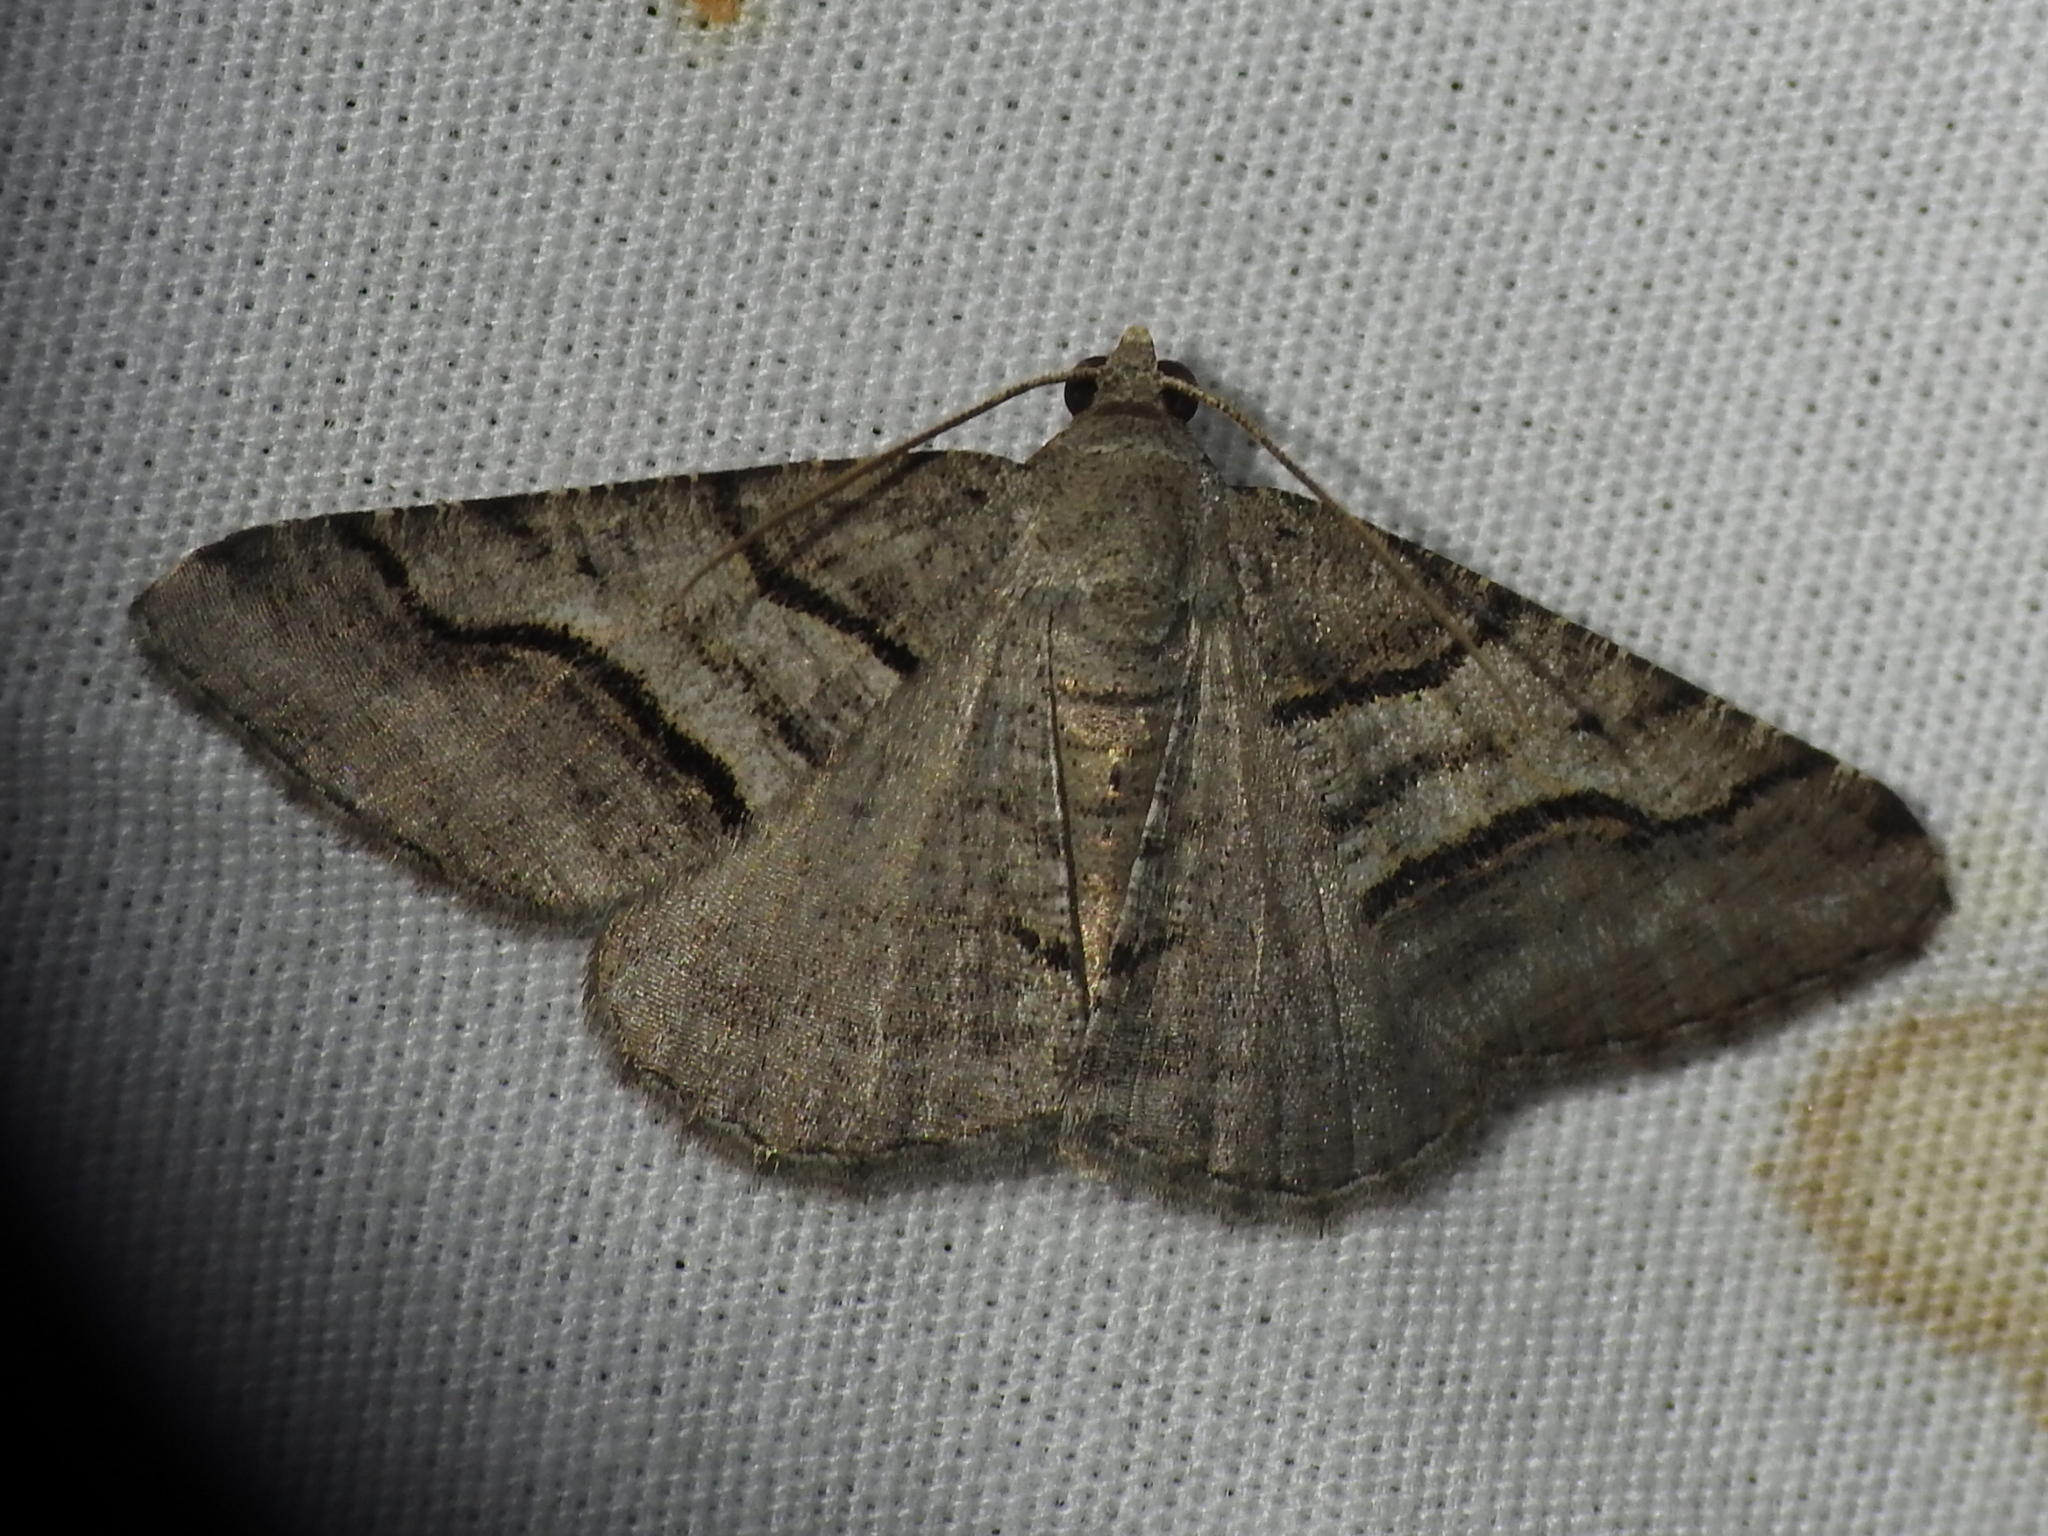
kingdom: Animalia
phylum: Arthropoda
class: Insecta
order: Lepidoptera
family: Geometridae
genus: Digrammia
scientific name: Digrammia continuata
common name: Curve-lined angle
